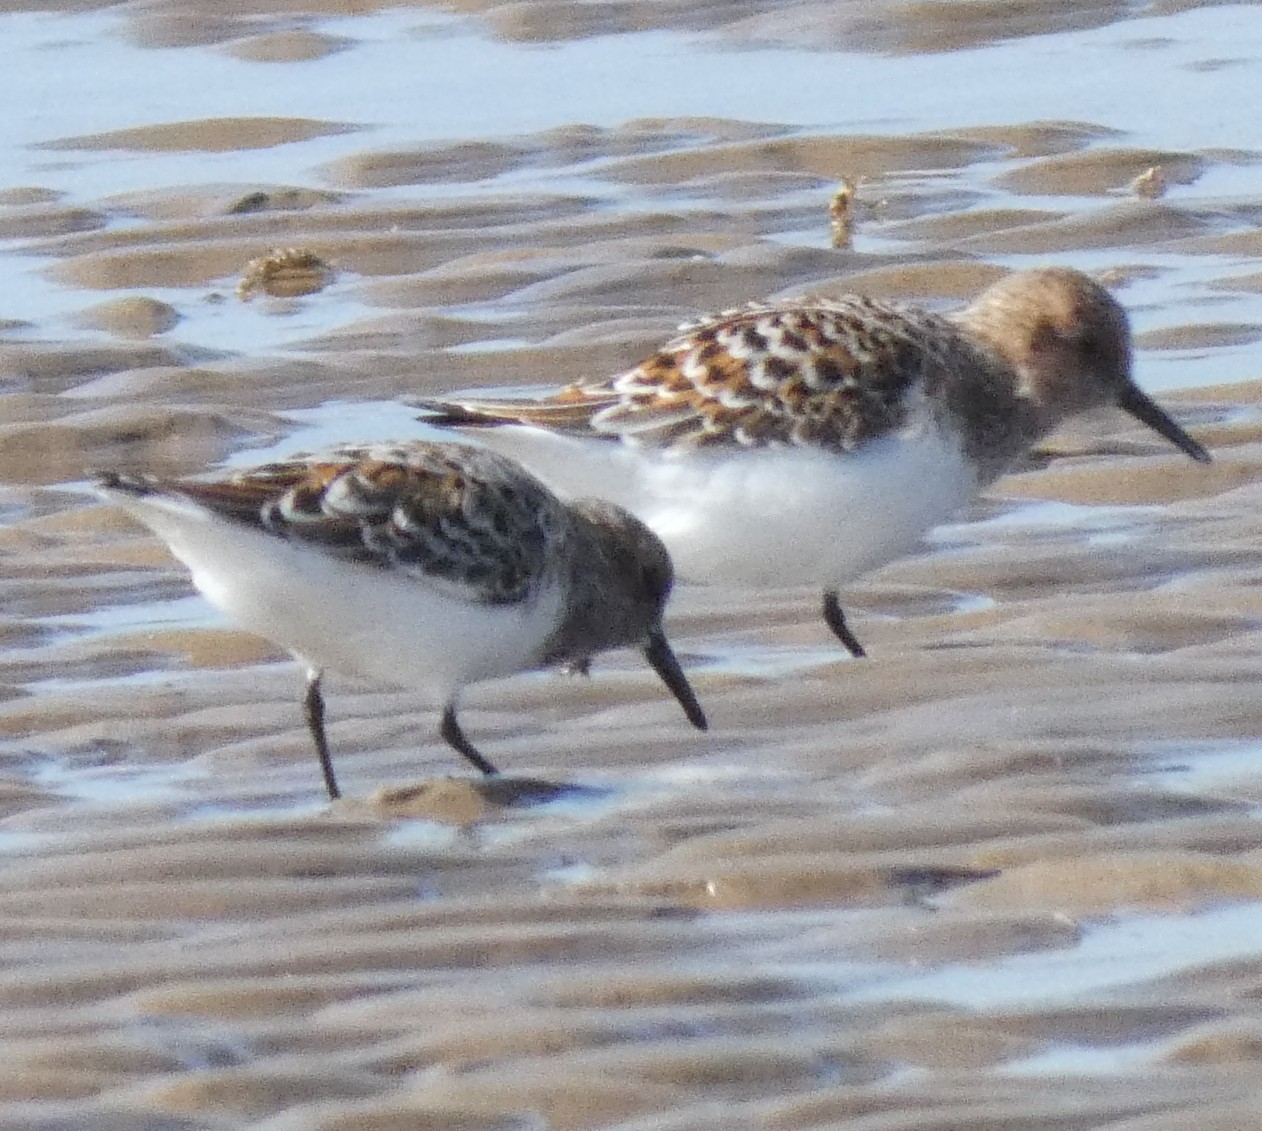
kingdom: Animalia
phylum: Chordata
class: Aves
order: Charadriiformes
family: Scolopacidae
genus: Calidris
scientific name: Calidris alba
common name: Sanderling
